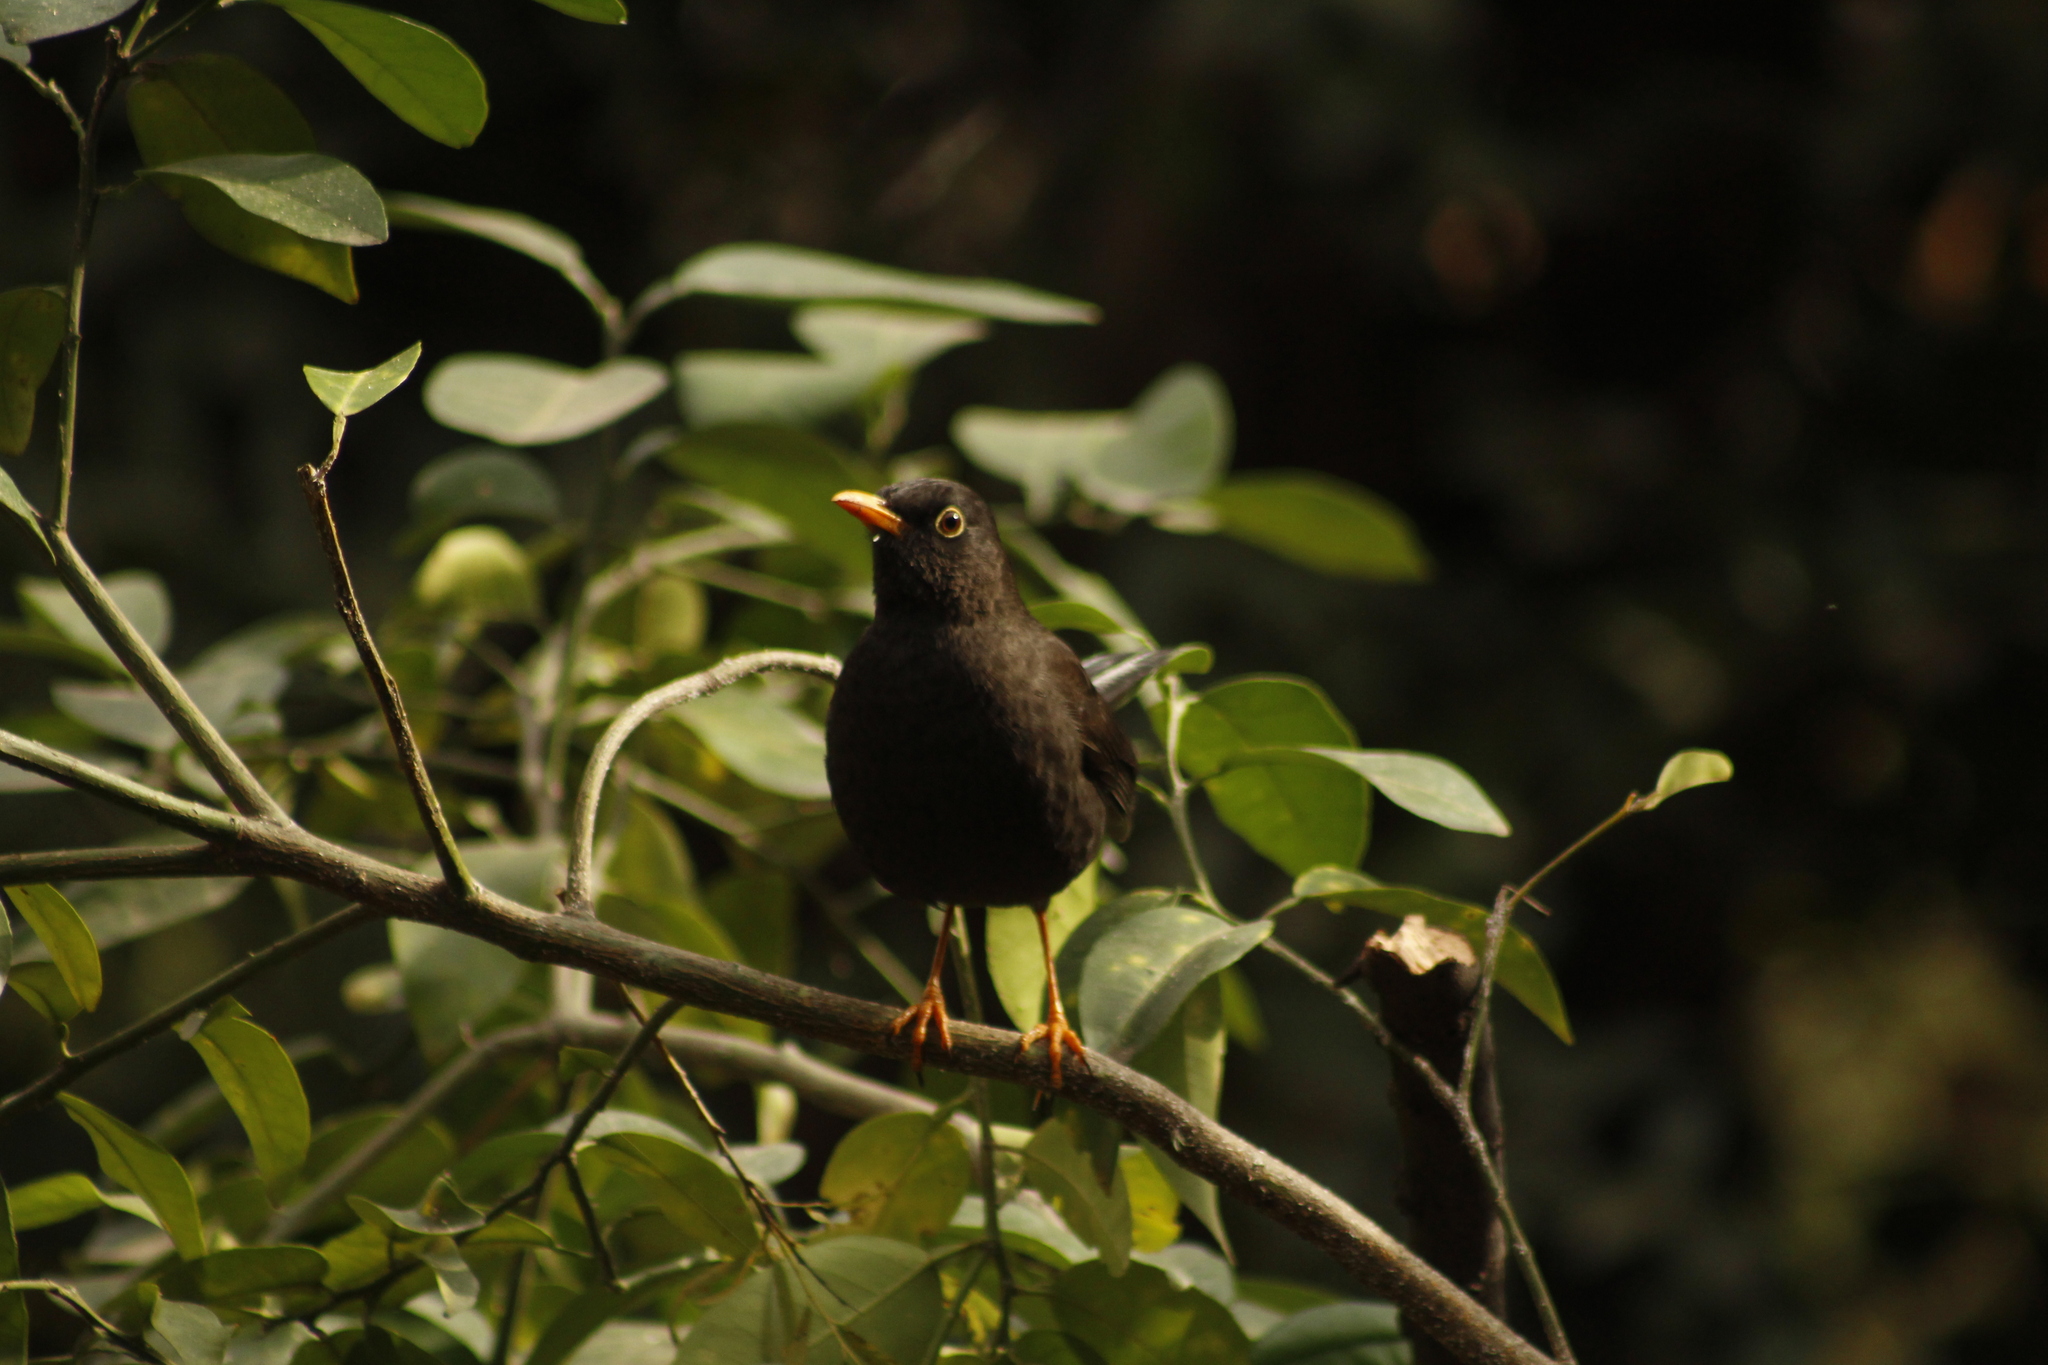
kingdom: Animalia
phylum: Chordata
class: Aves
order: Passeriformes
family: Turdidae
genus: Turdus
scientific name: Turdus chiguanco
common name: Chiguanco thrush
